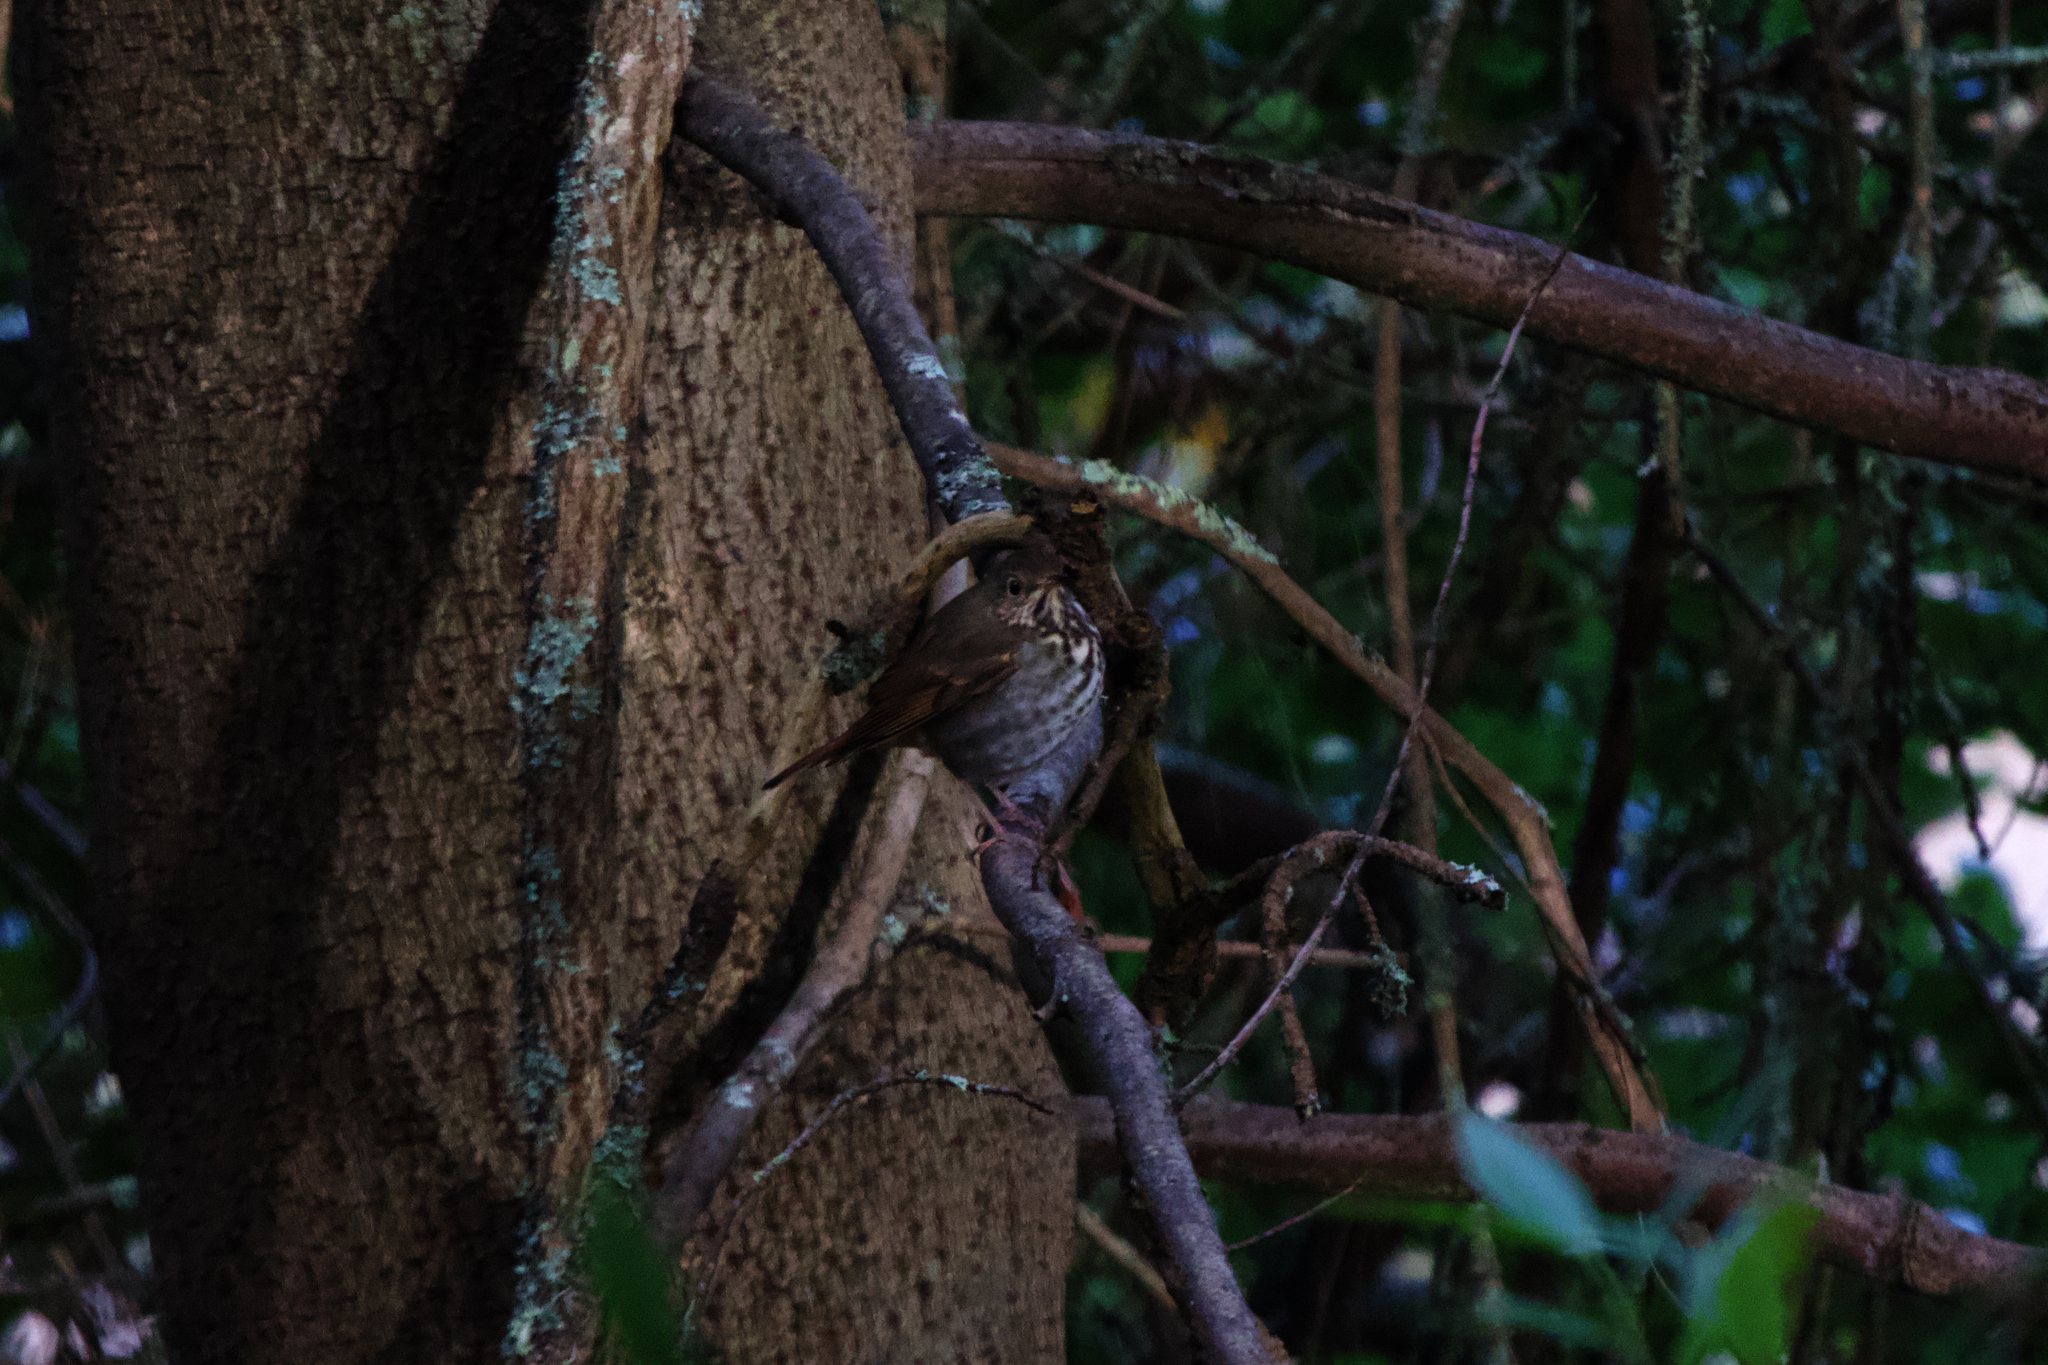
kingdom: Animalia
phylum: Chordata
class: Aves
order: Passeriformes
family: Turdidae
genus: Catharus
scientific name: Catharus guttatus
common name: Hermit thrush
